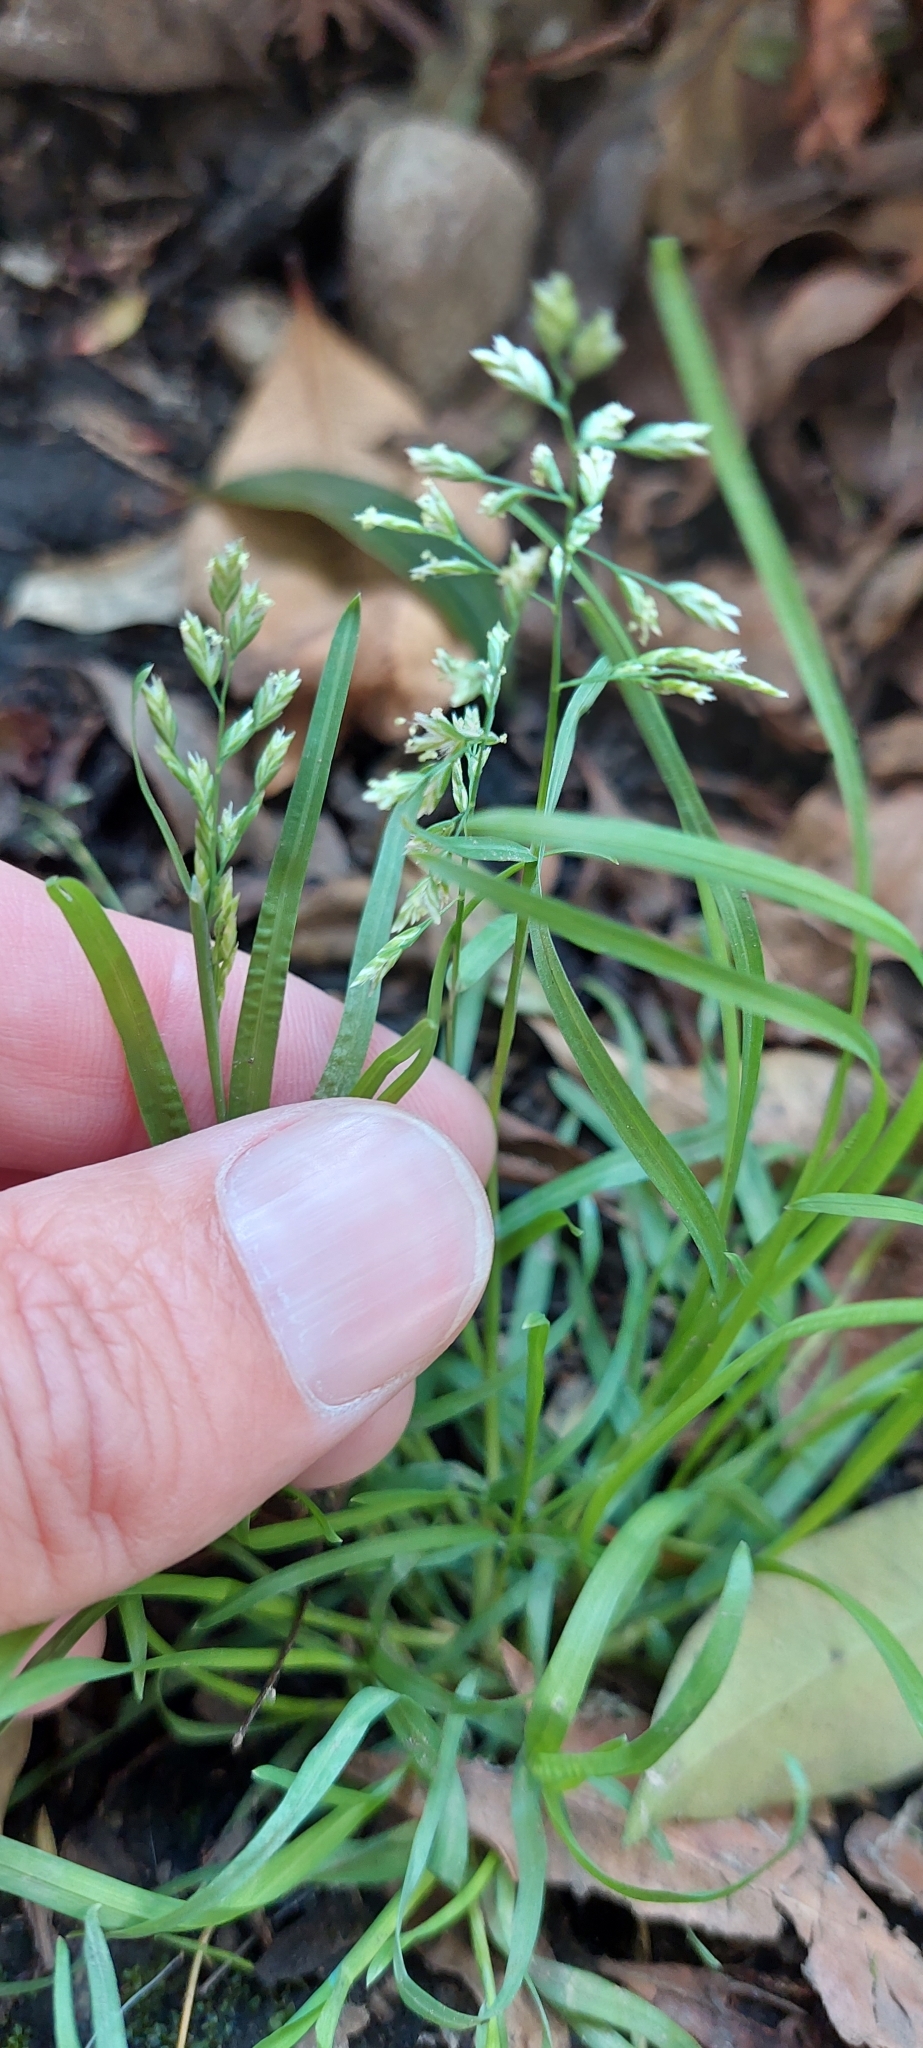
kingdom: Plantae
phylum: Tracheophyta
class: Liliopsida
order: Poales
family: Poaceae
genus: Poa
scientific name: Poa annua
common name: Annual bluegrass
